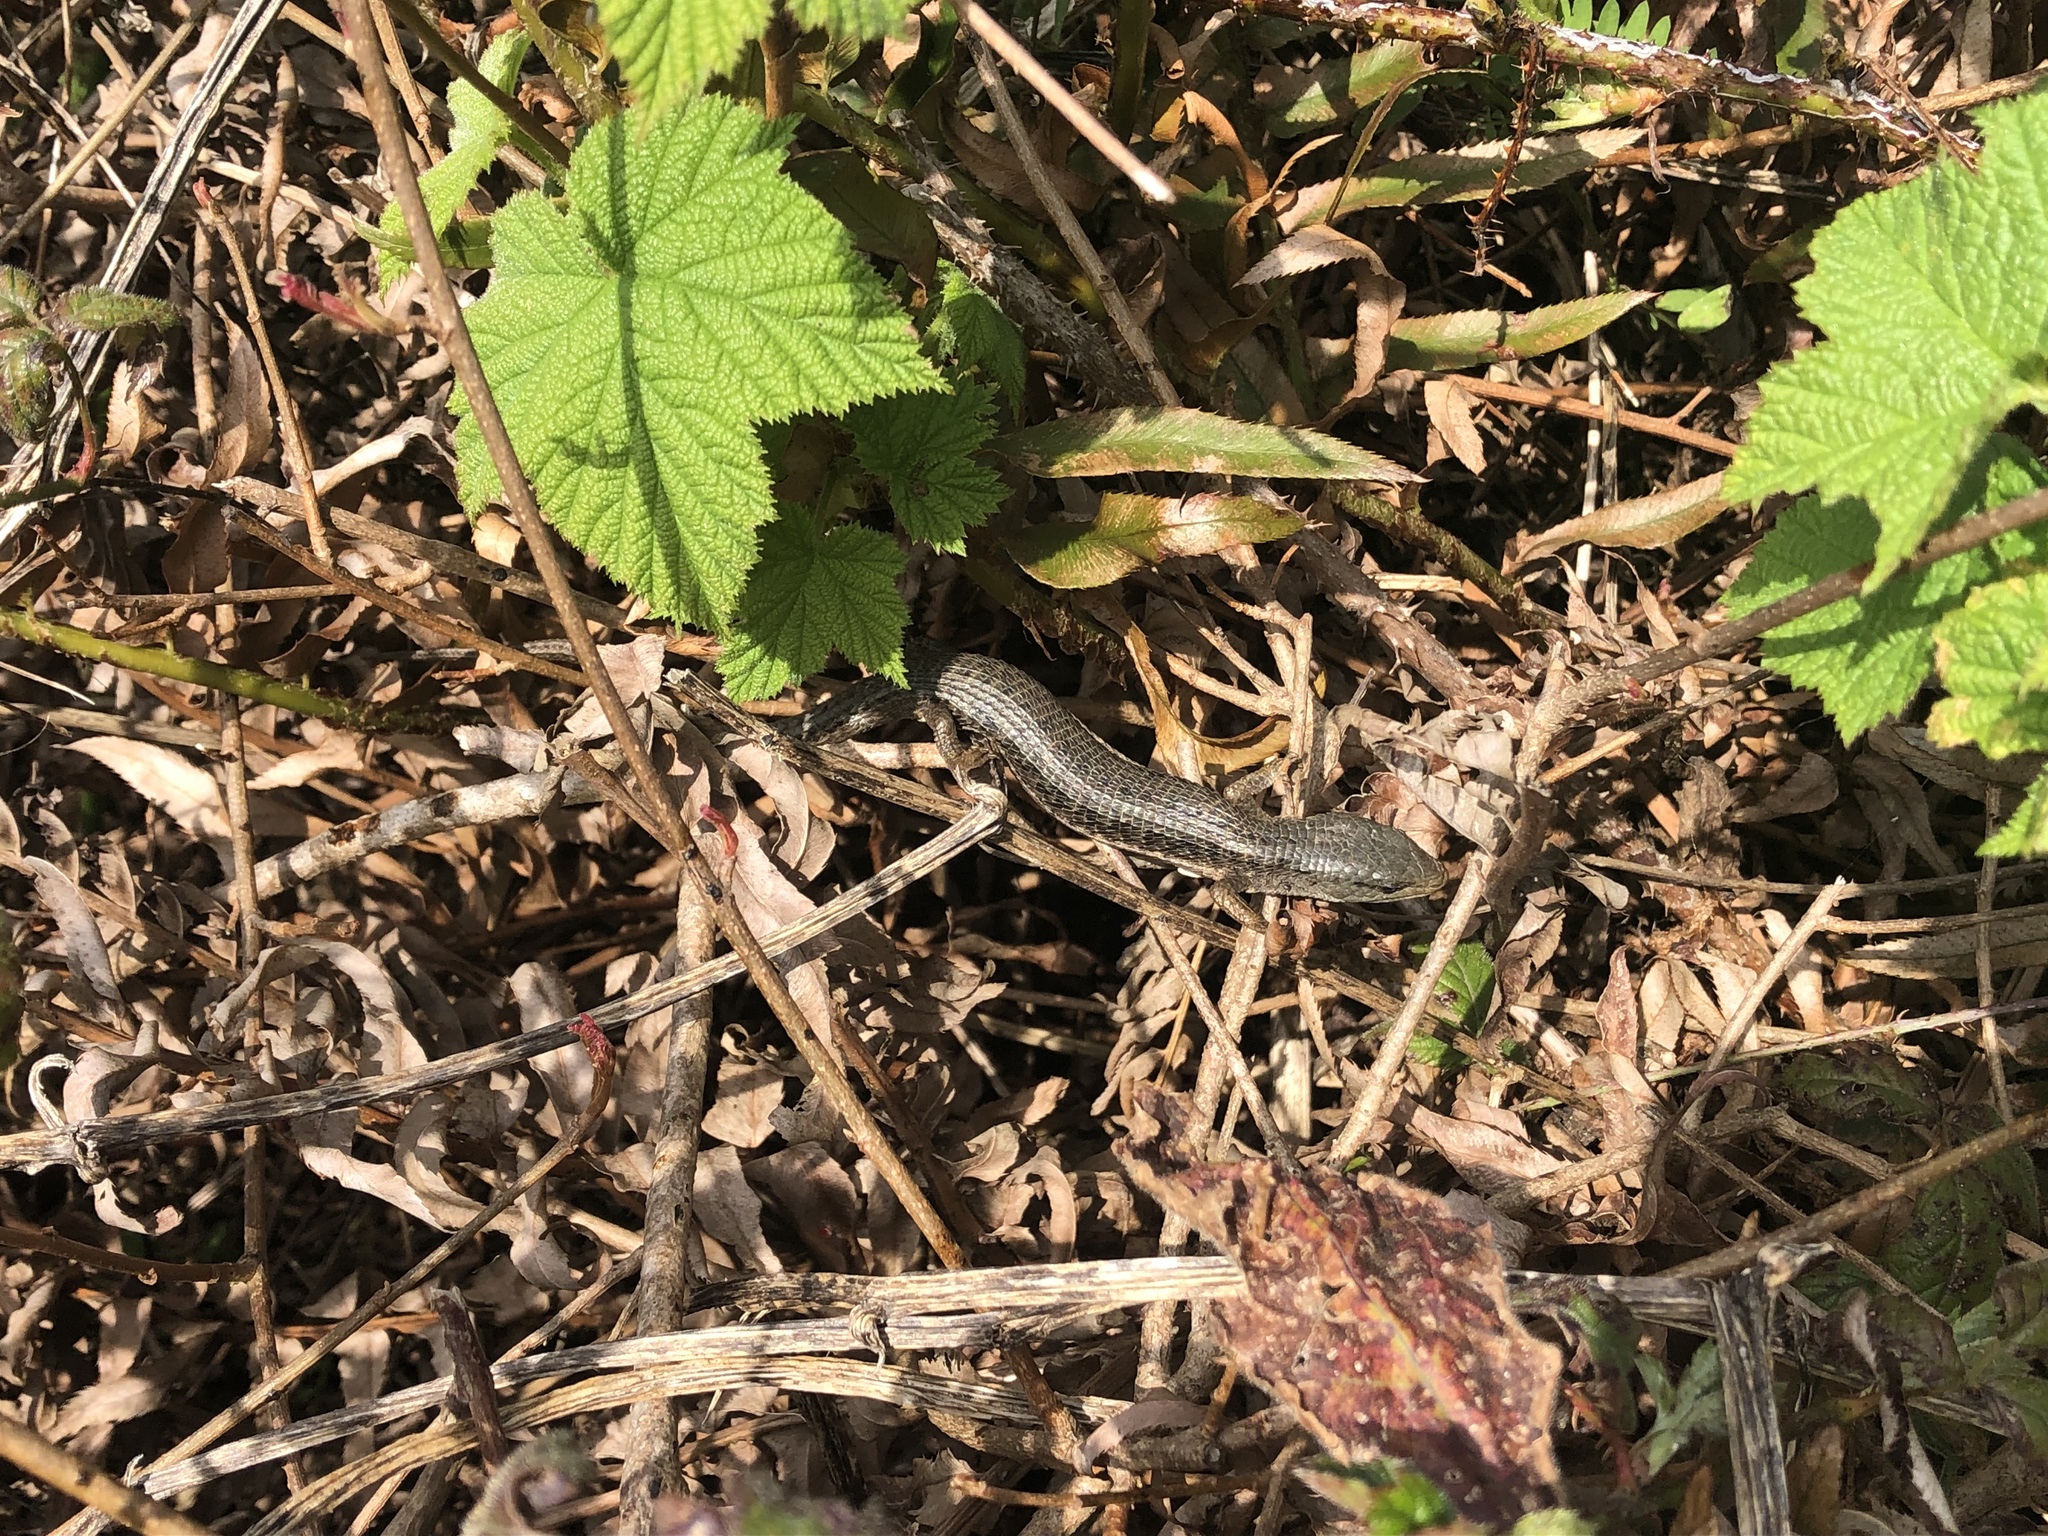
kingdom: Animalia
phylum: Chordata
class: Squamata
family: Anguidae
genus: Elgaria
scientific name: Elgaria coerulea
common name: Northern alligator lizard
